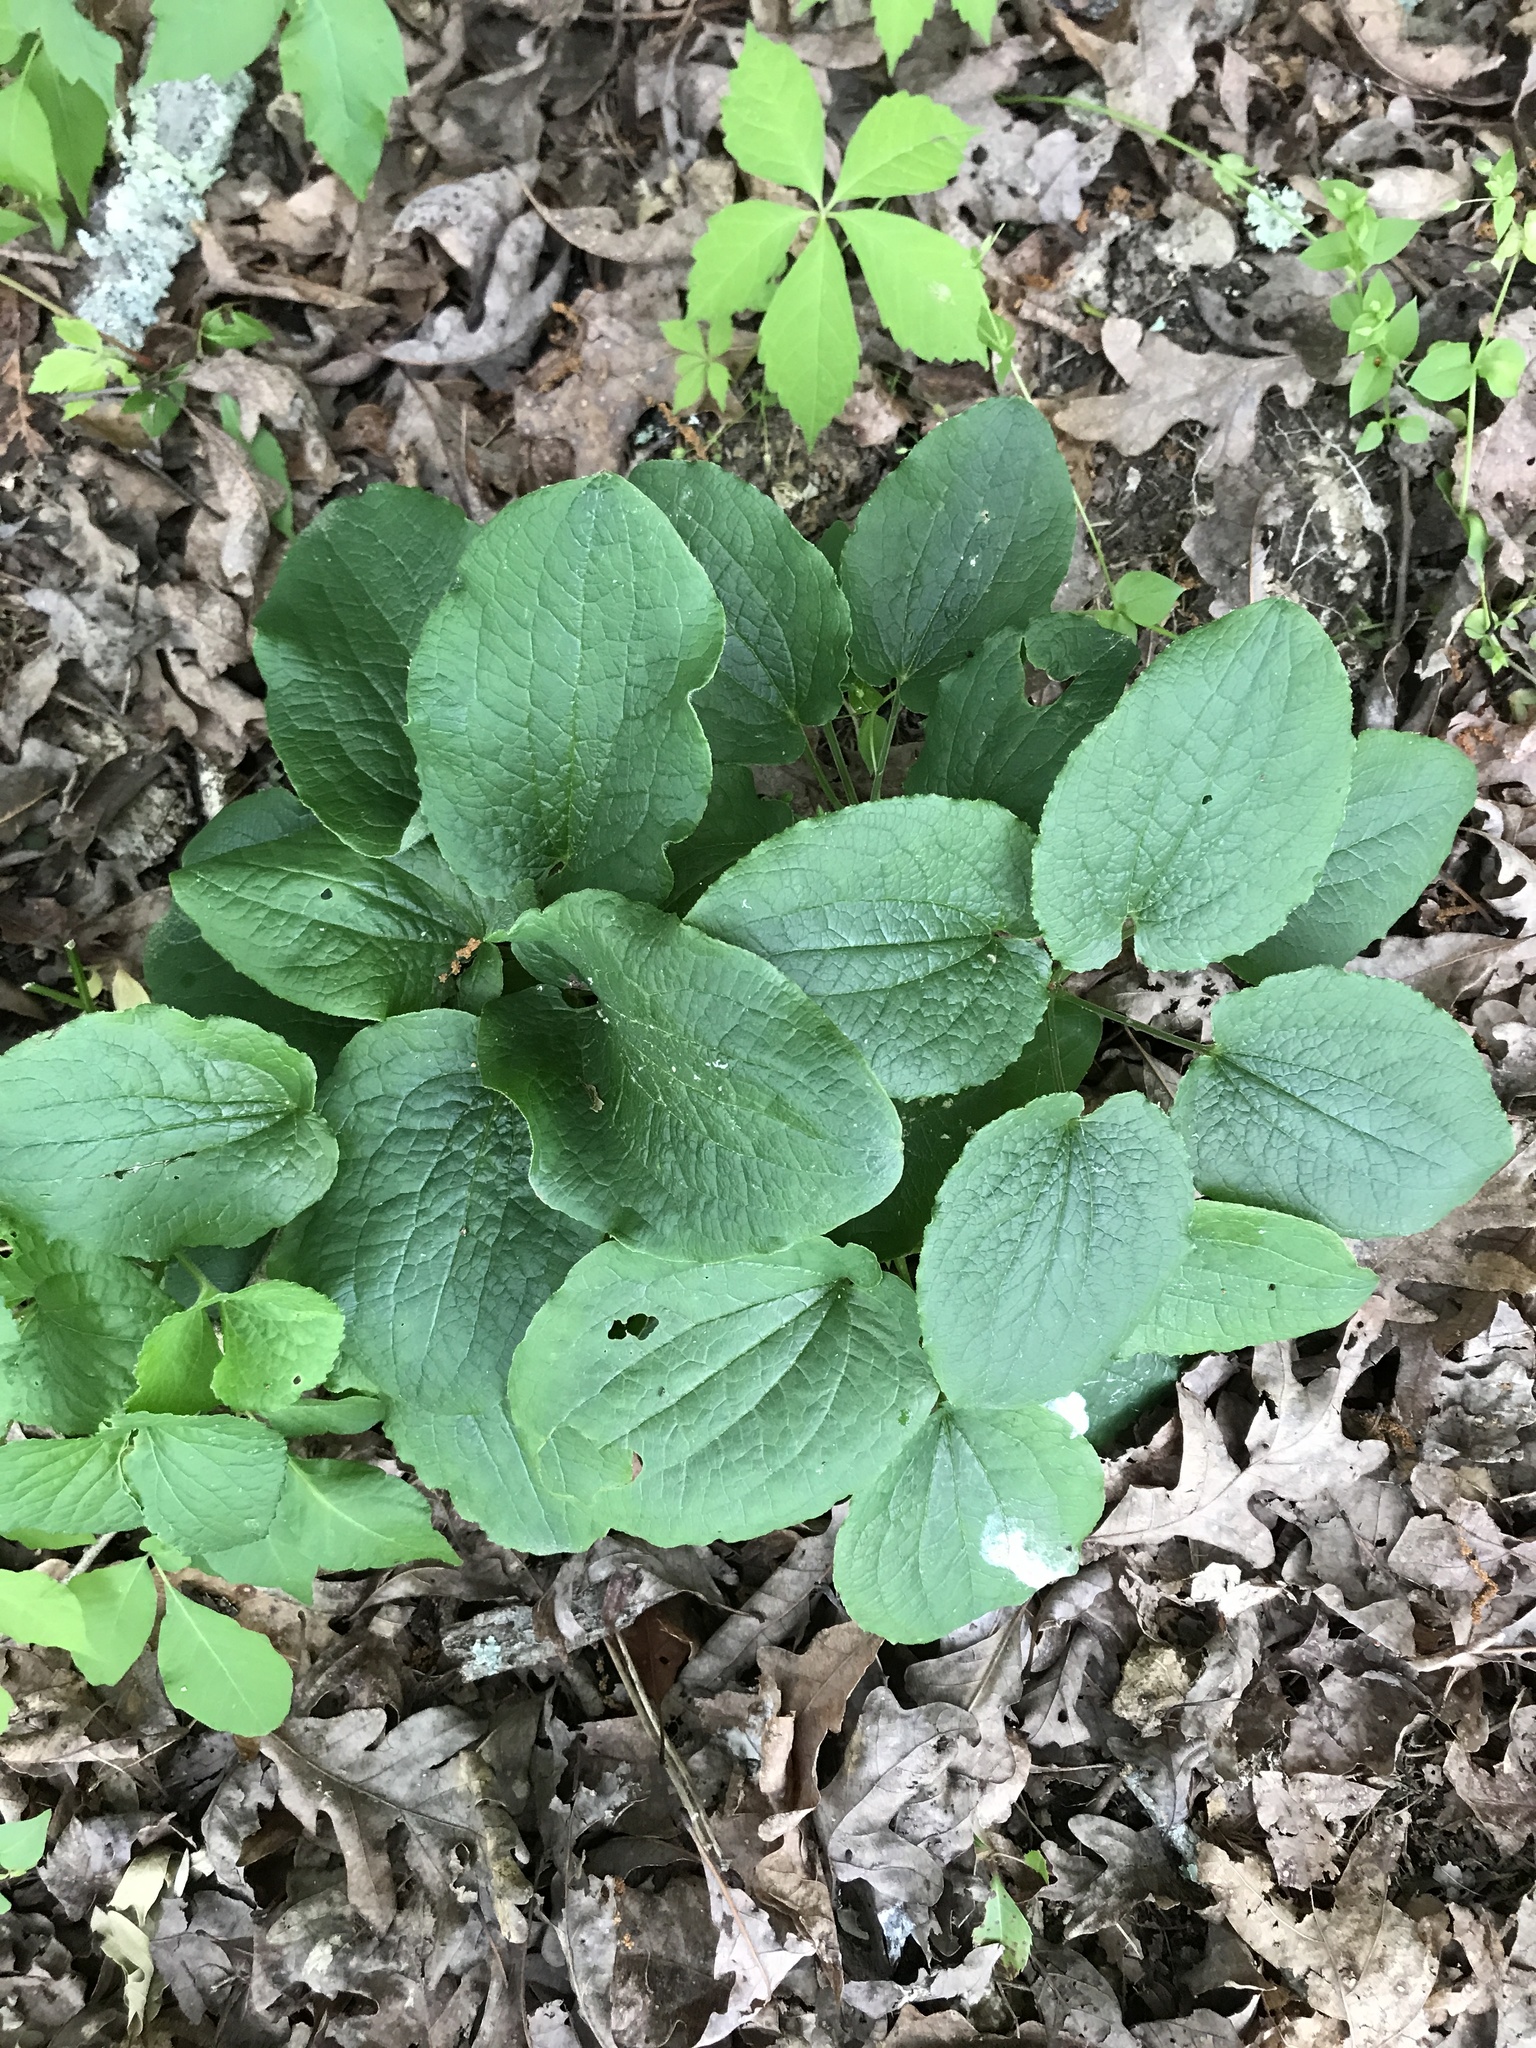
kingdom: Plantae
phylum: Tracheophyta
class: Liliopsida
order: Liliales
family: Smilacaceae
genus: Smilax
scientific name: Smilax ecirrhata
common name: Upright carrionflower
